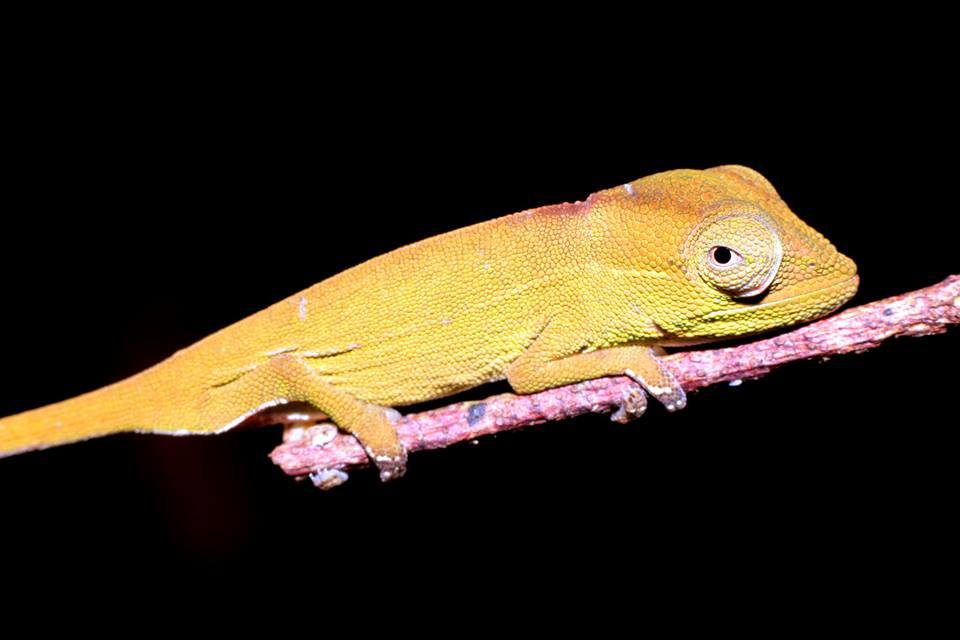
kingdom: Animalia
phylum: Chordata
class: Squamata
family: Chamaeleonidae
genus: Calumma
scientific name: Calumma gastrotaenia
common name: Short-nosed chameleon
